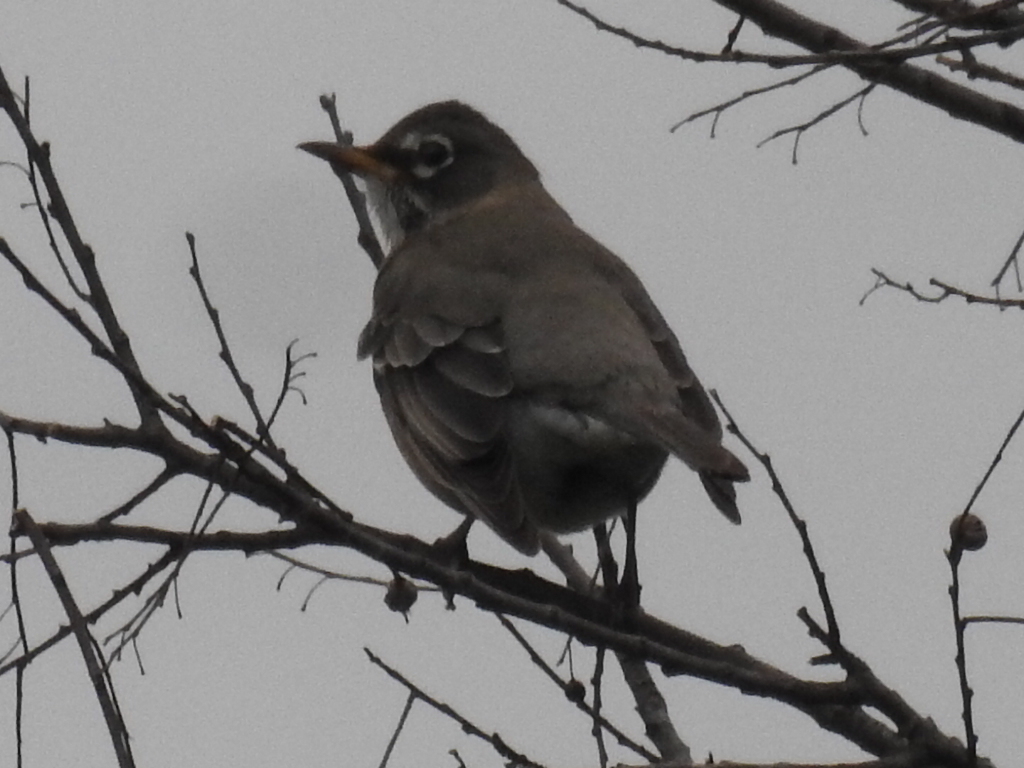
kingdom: Animalia
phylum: Chordata
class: Aves
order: Passeriformes
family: Turdidae
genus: Turdus
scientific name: Turdus migratorius
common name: American robin
